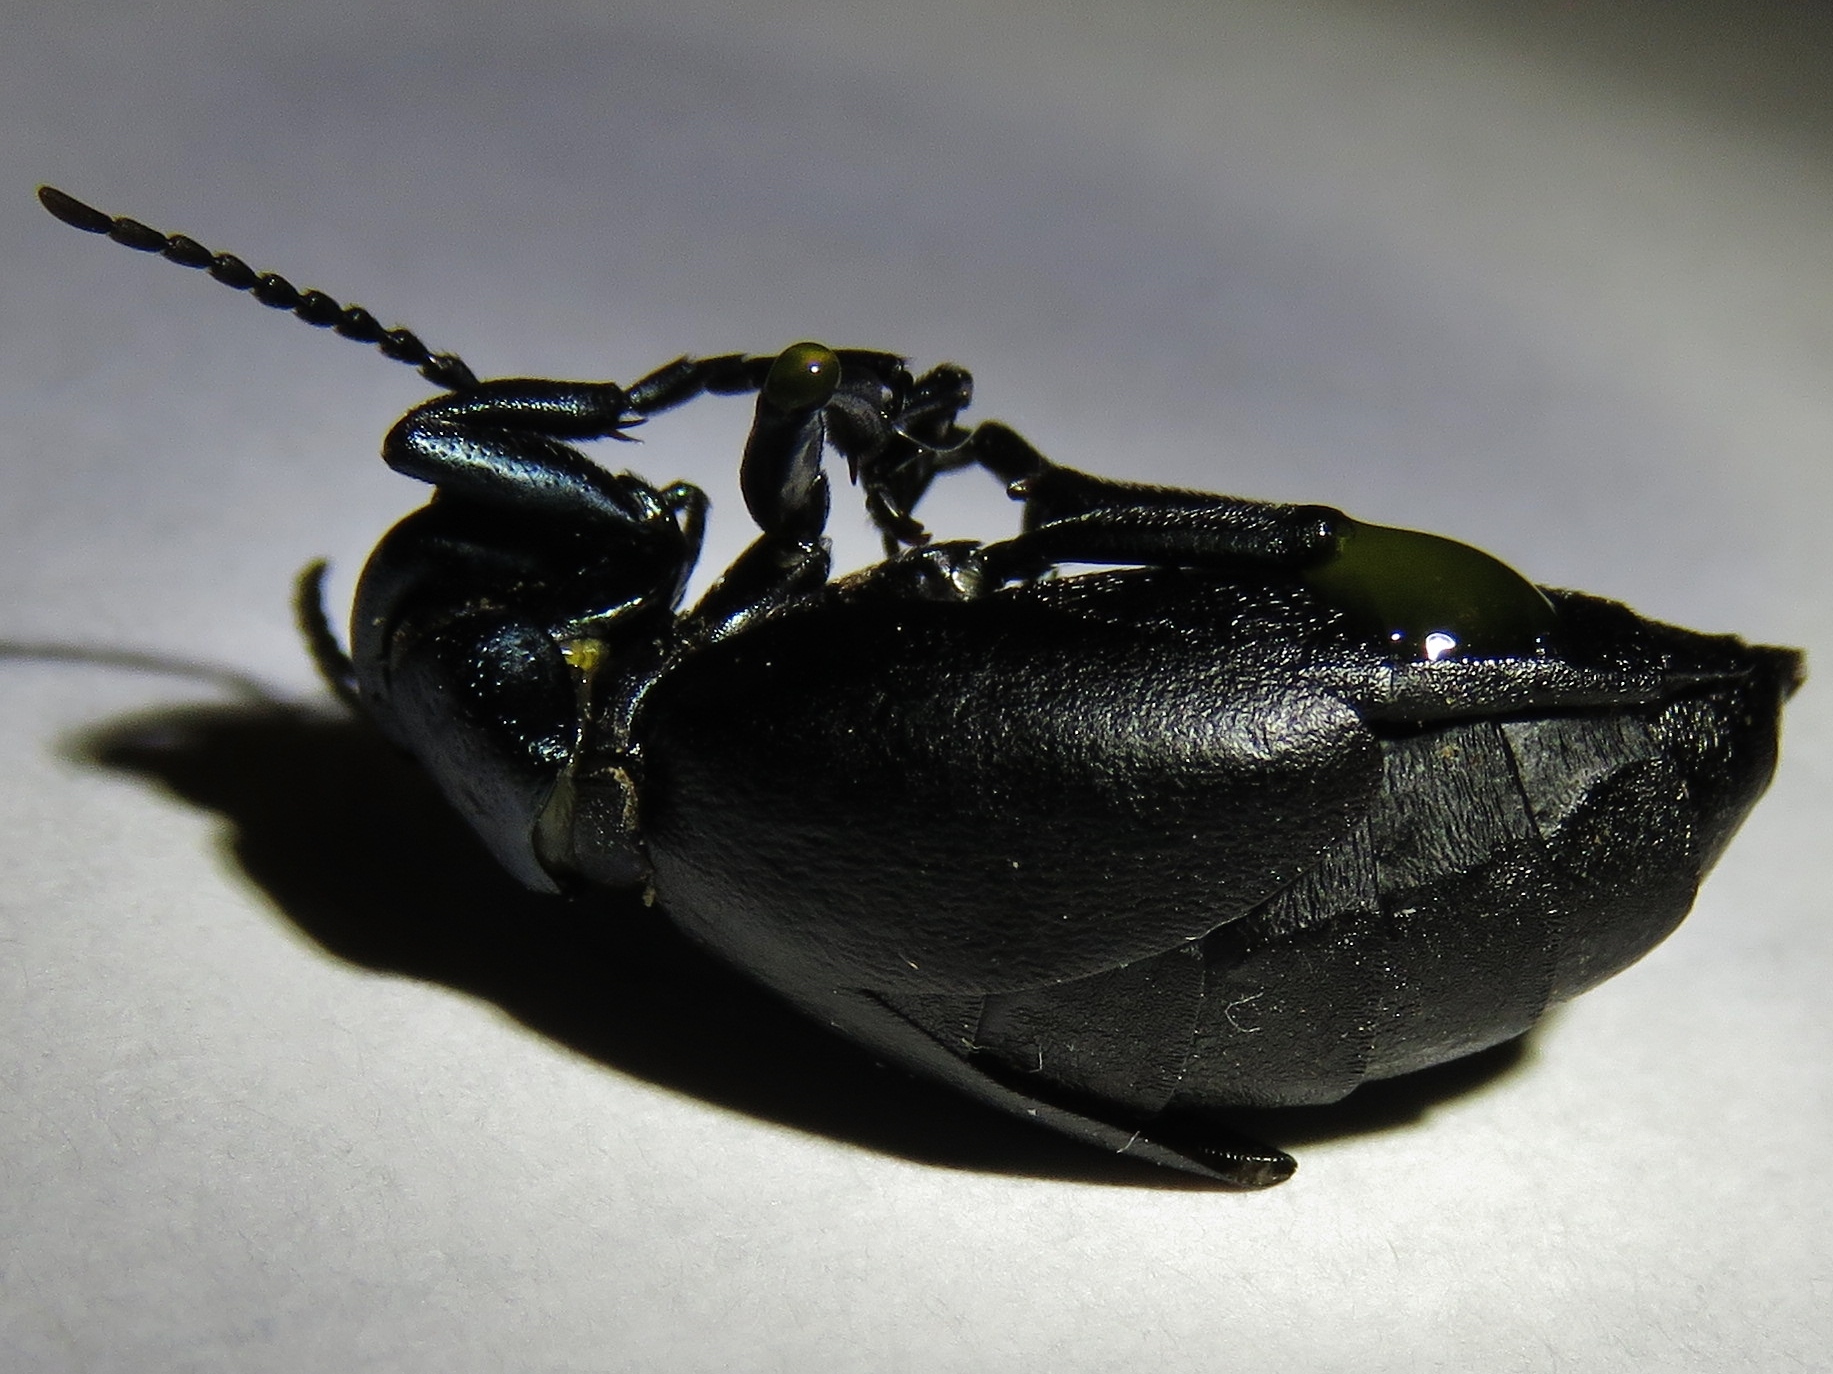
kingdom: Animalia
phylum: Arthropoda
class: Insecta
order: Coleoptera
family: Meloidae
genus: Meloe
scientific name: Meloe americanus
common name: Buttercup oil beetle
